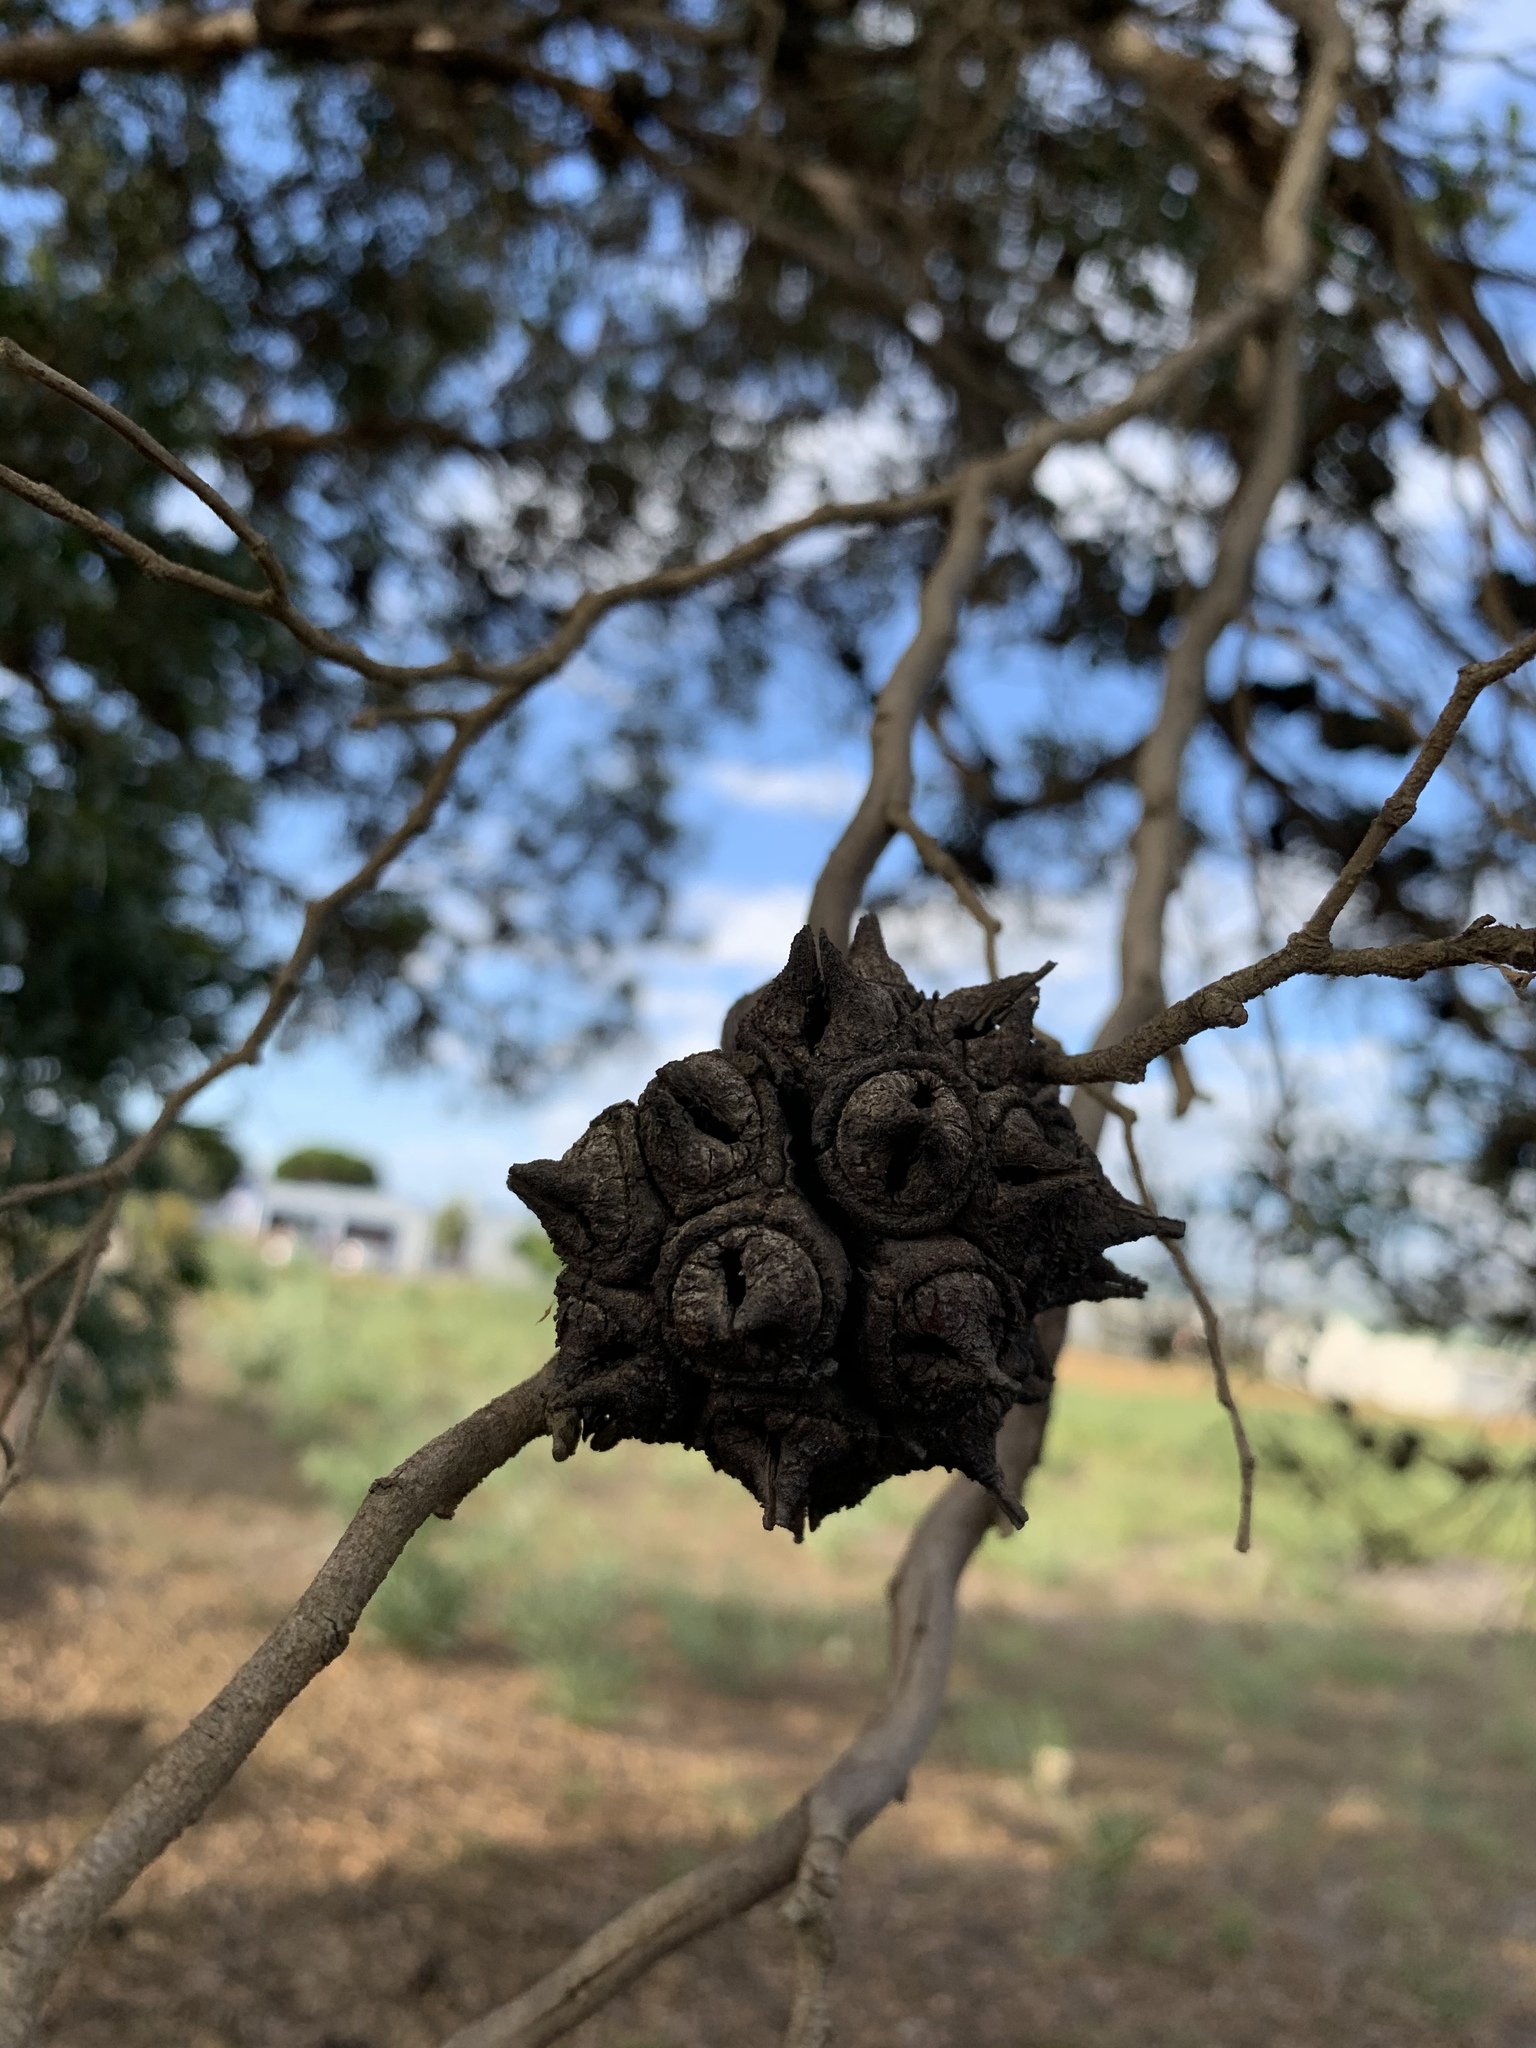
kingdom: Plantae
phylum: Tracheophyta
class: Magnoliopsida
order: Myrtales
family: Myrtaceae
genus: Eucalyptus
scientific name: Eucalyptus conferruminata
